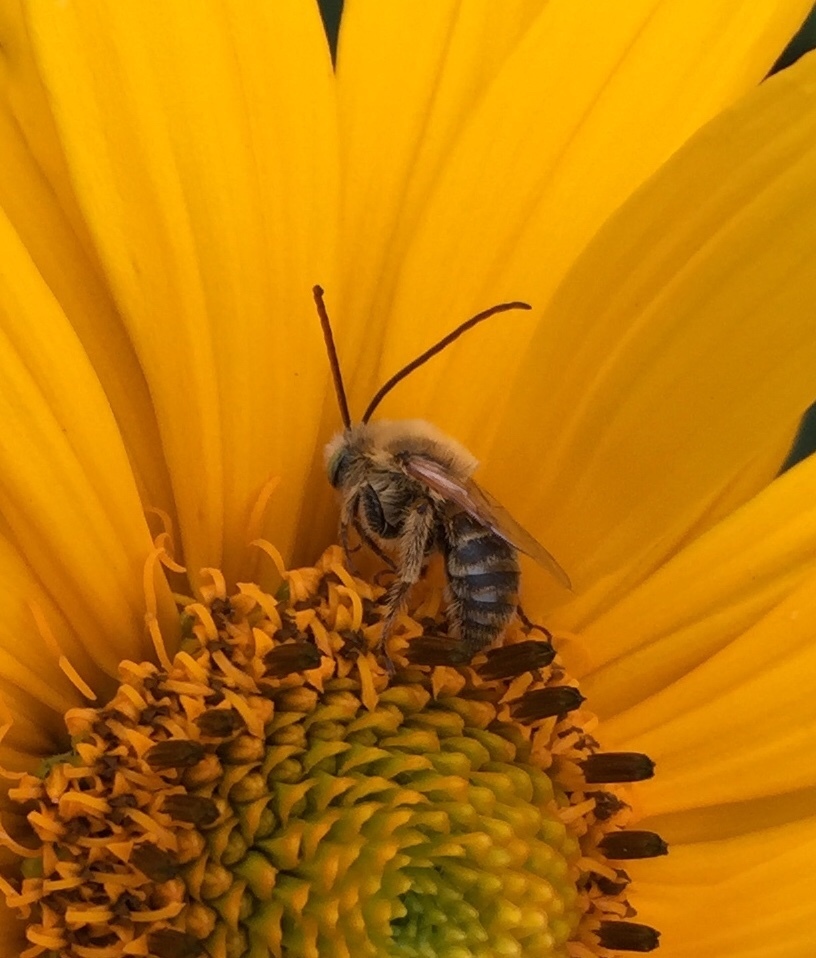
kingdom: Animalia
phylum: Arthropoda
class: Insecta
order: Hymenoptera
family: Apidae
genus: Melissodes
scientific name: Melissodes trinodis
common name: Dark-veined longhorn
